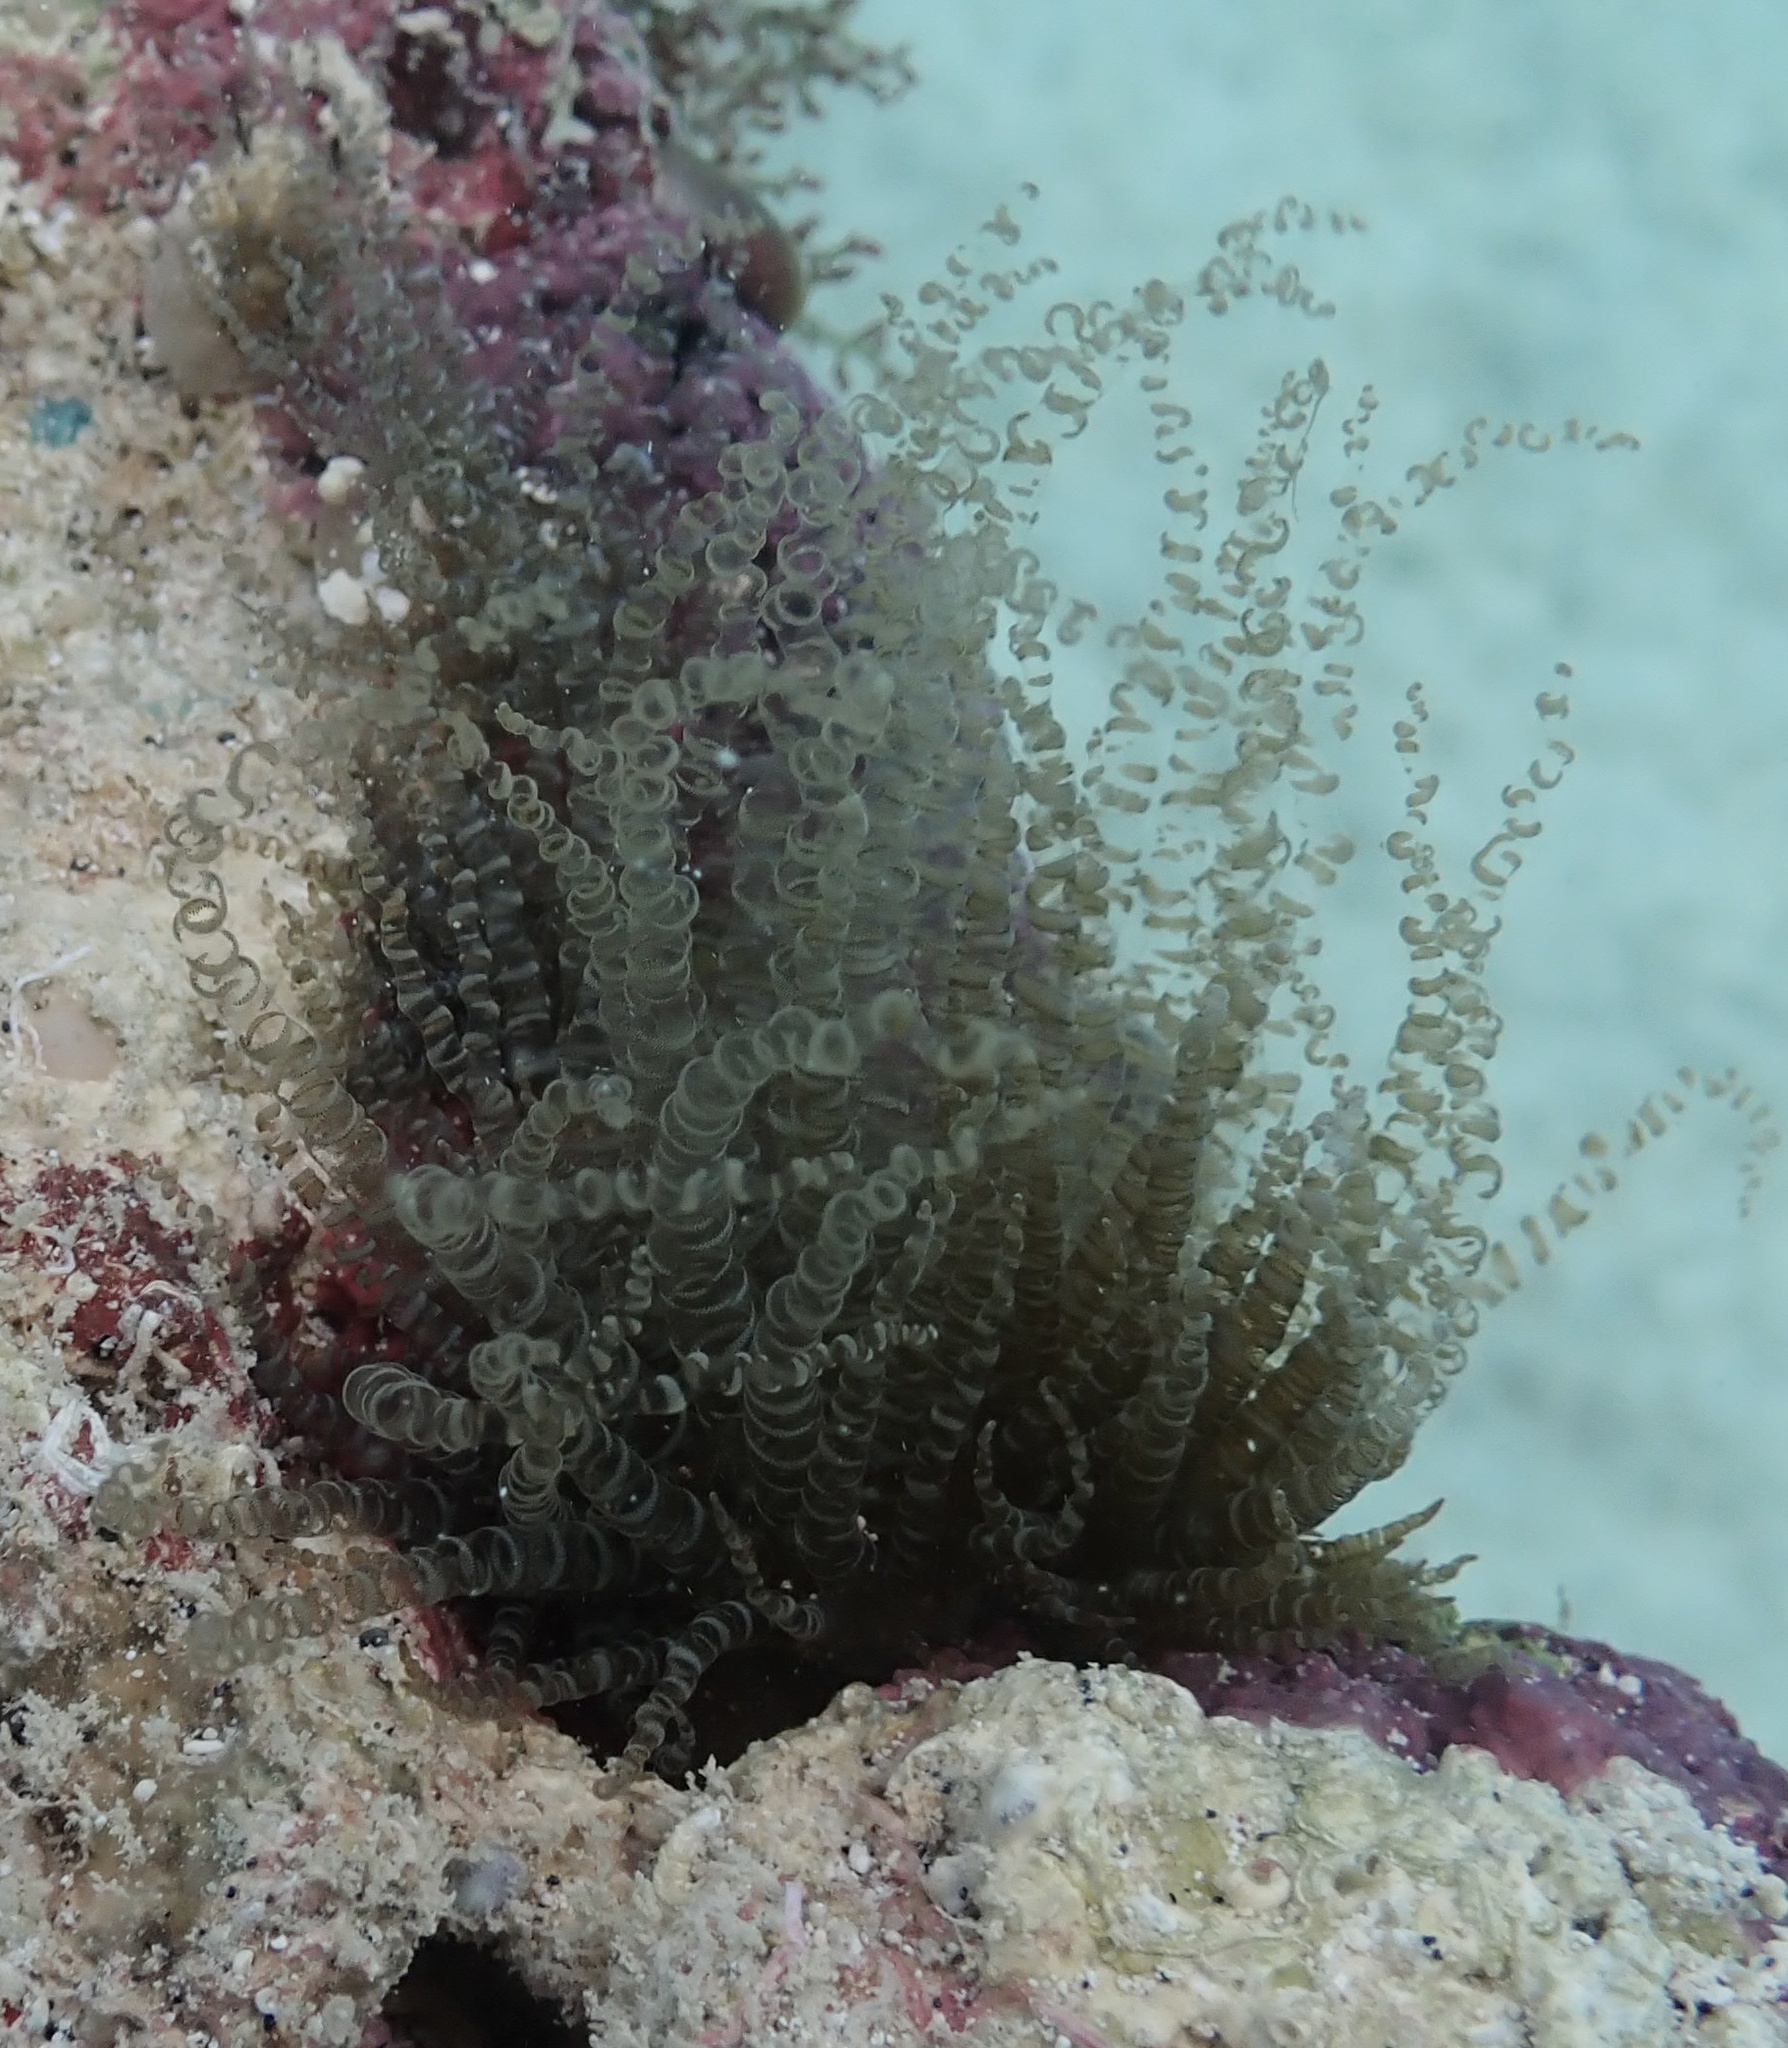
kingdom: Animalia
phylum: Cnidaria
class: Anthozoa
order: Actiniaria
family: Aiptasiidae
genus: Bartholomea
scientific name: Bartholomea annulata
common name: Corkscrew anemone
